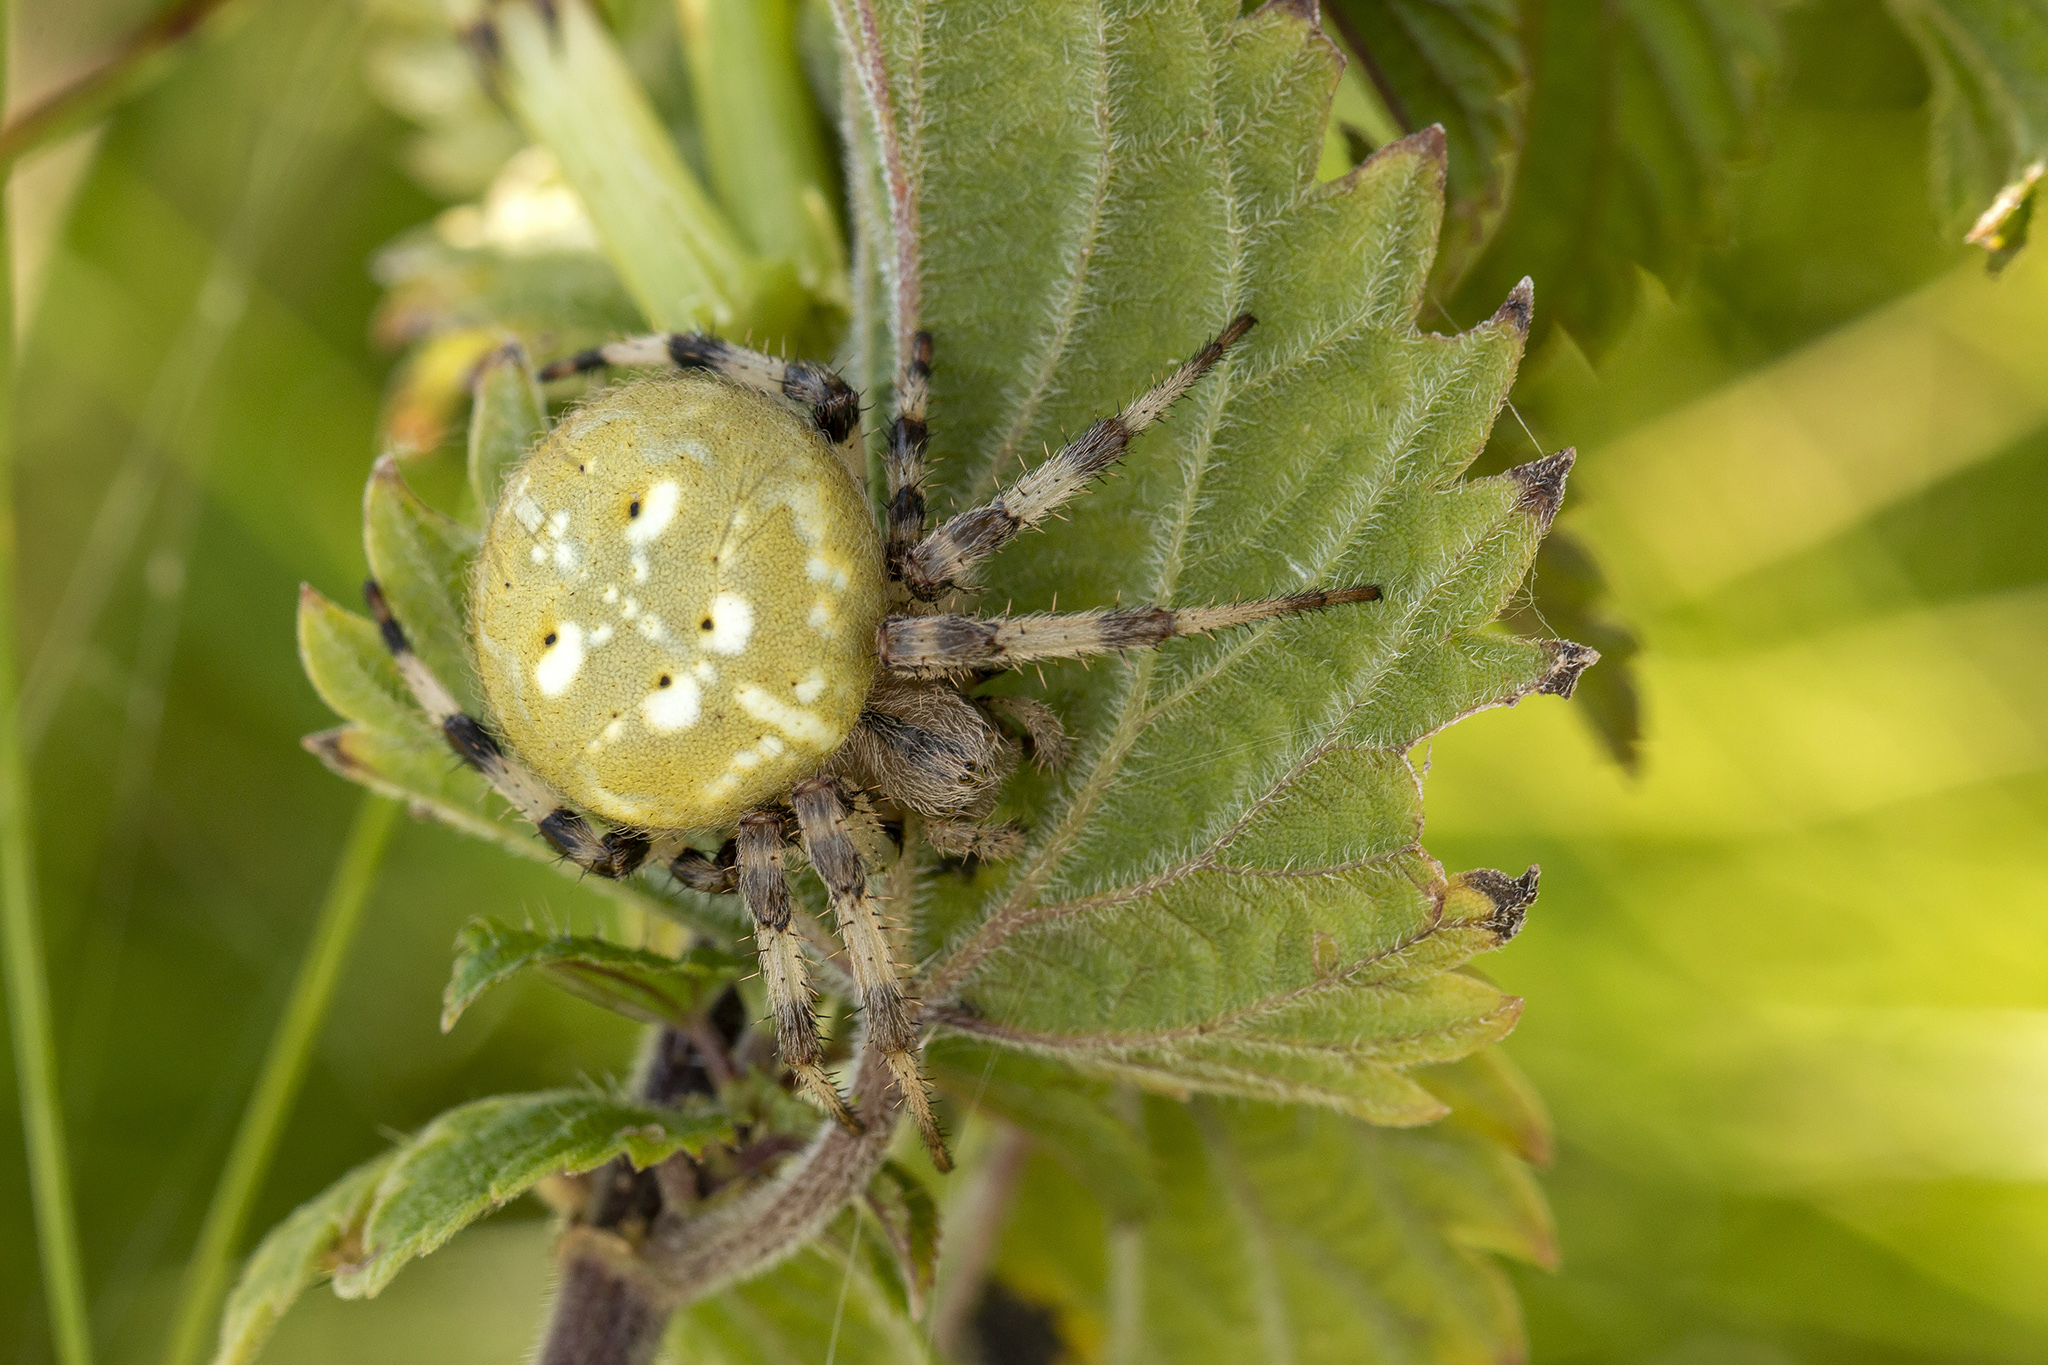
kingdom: Animalia
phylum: Arthropoda
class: Arachnida
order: Araneae
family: Araneidae
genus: Araneus
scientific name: Araneus quadratus
